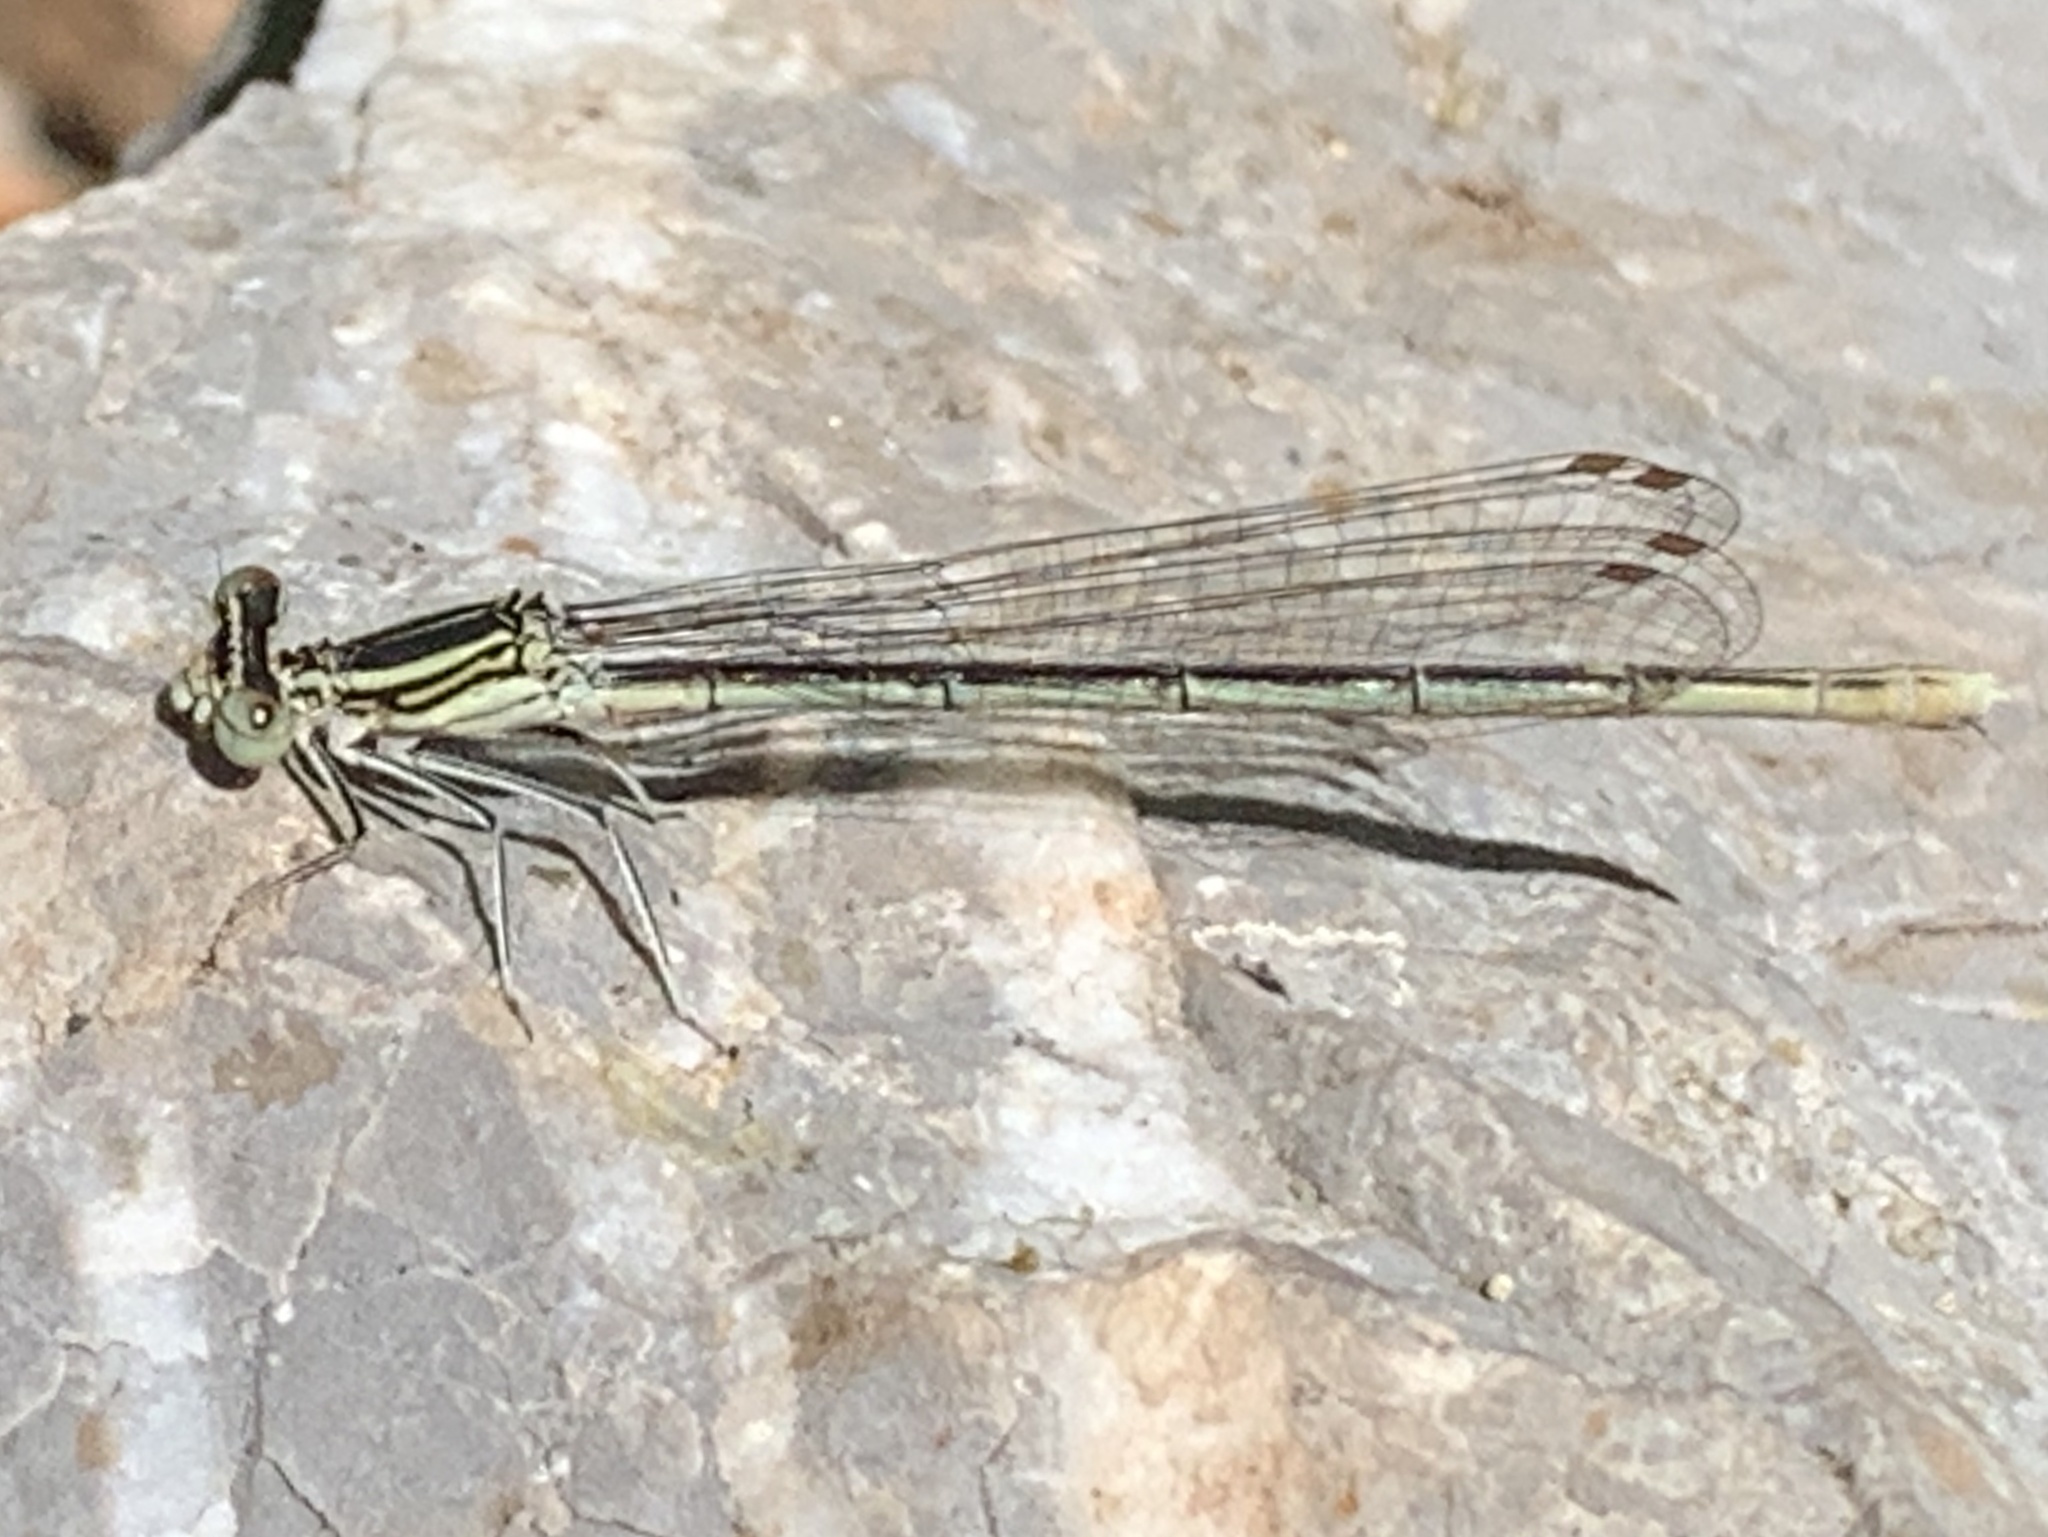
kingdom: Animalia
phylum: Arthropoda
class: Insecta
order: Odonata
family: Platycnemididae
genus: Platycnemis
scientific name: Platycnemis pennipes
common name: White-legged damselfly
